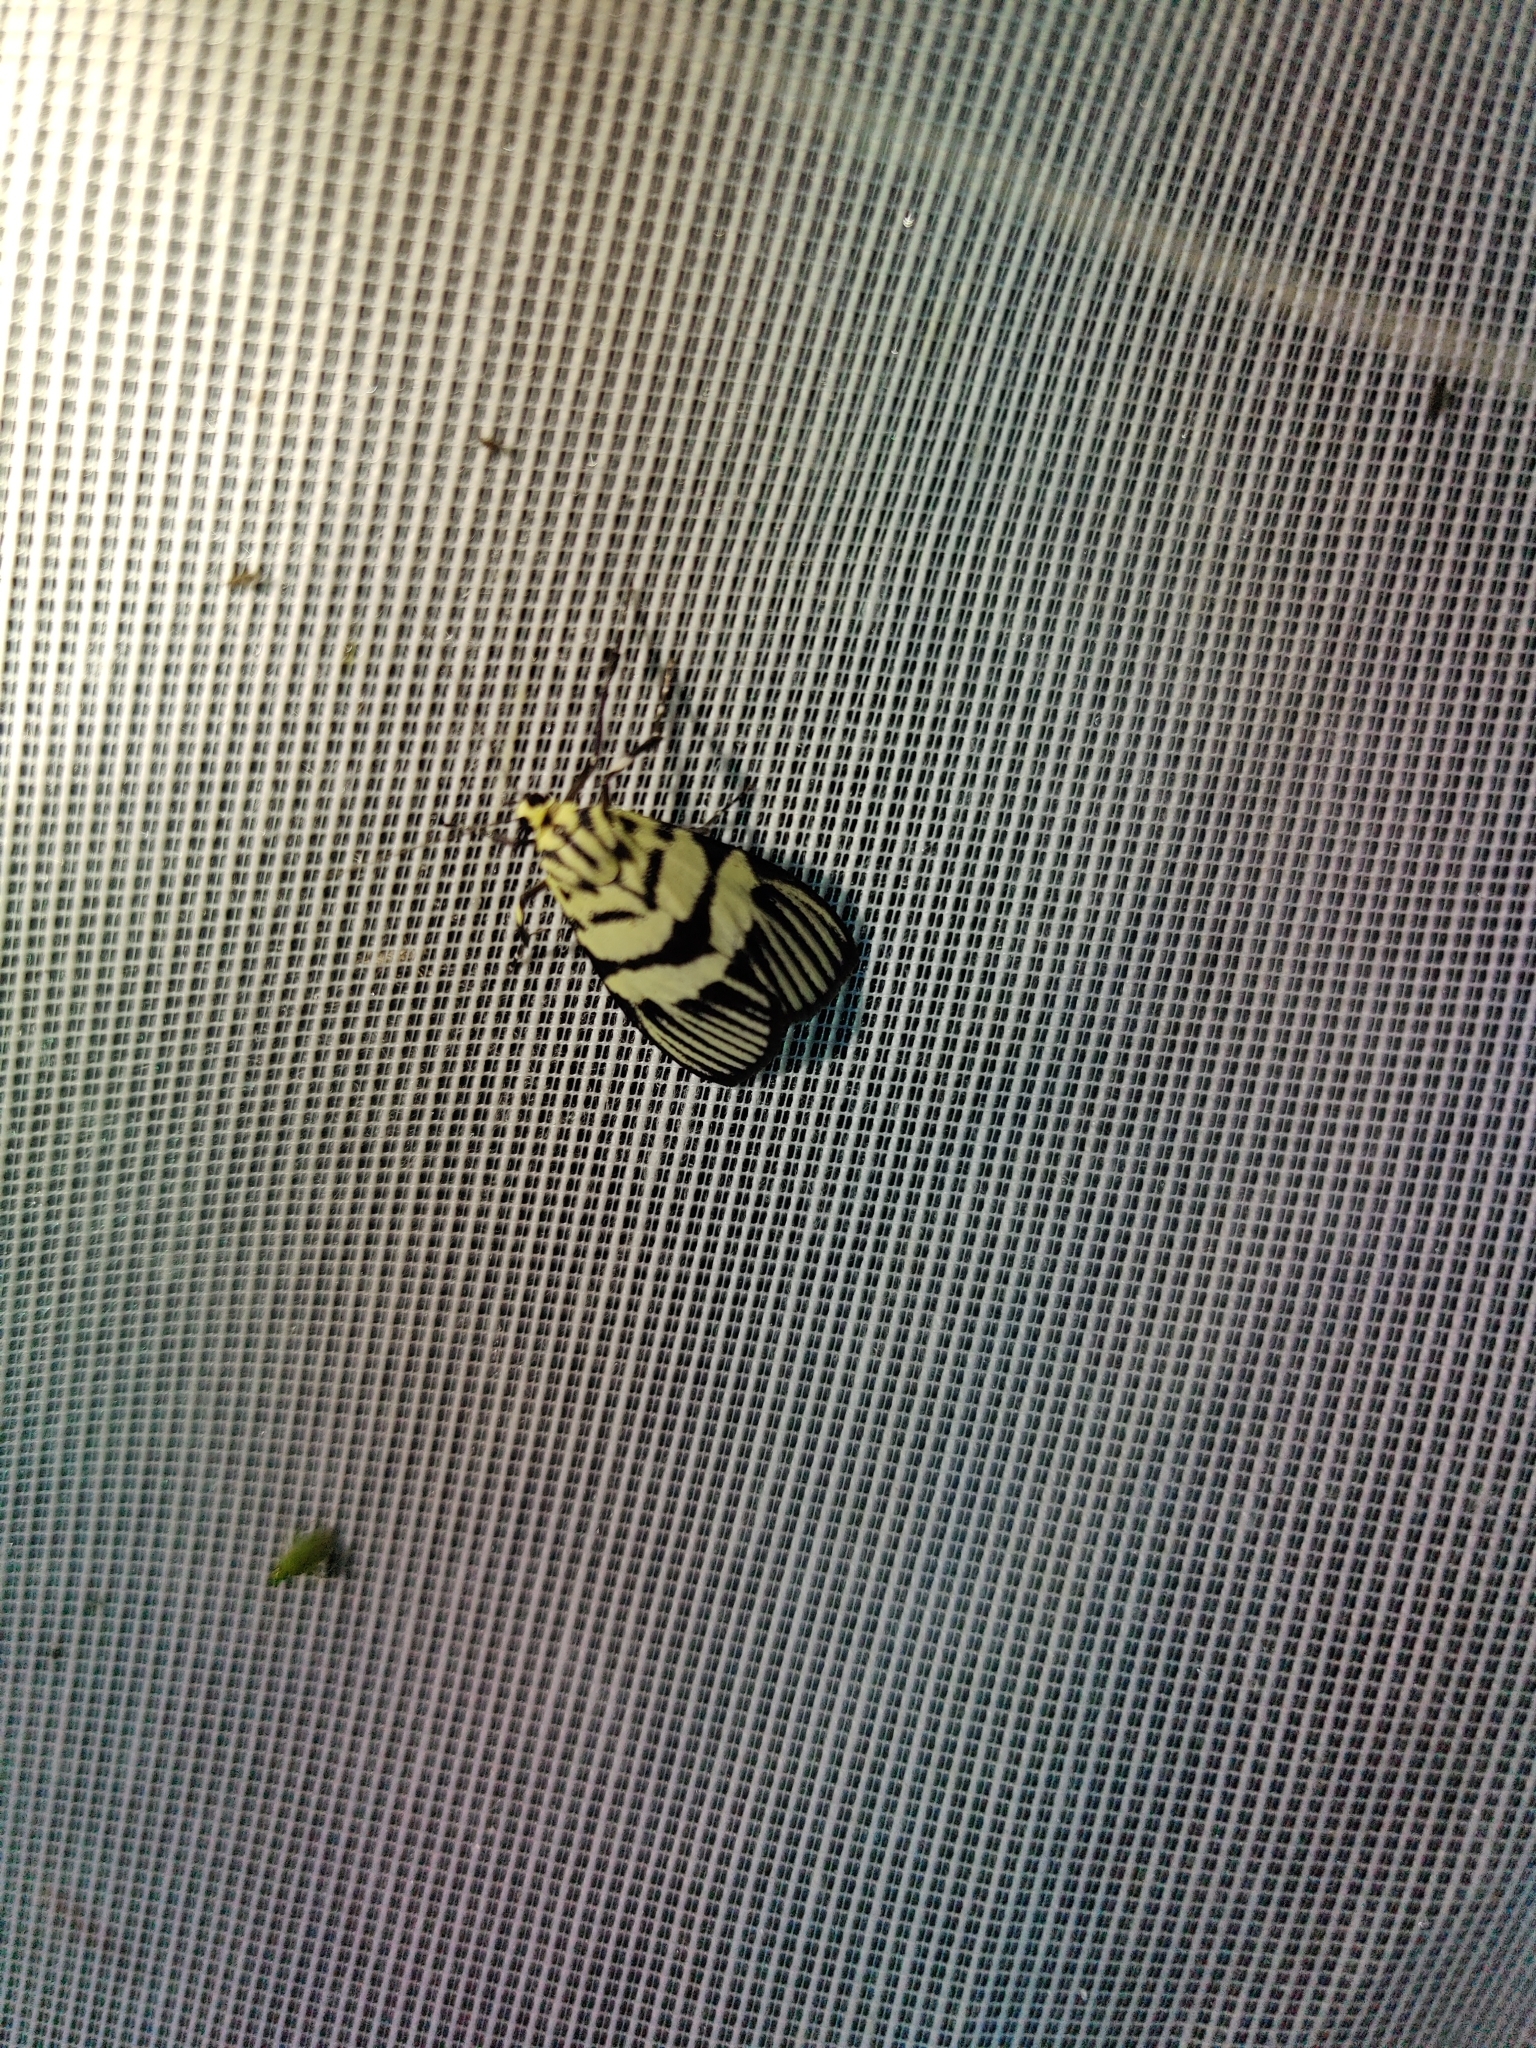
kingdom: Animalia
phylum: Arthropoda
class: Insecta
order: Lepidoptera
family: Crambidae
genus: Heortia
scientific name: Heortia vitessoides
